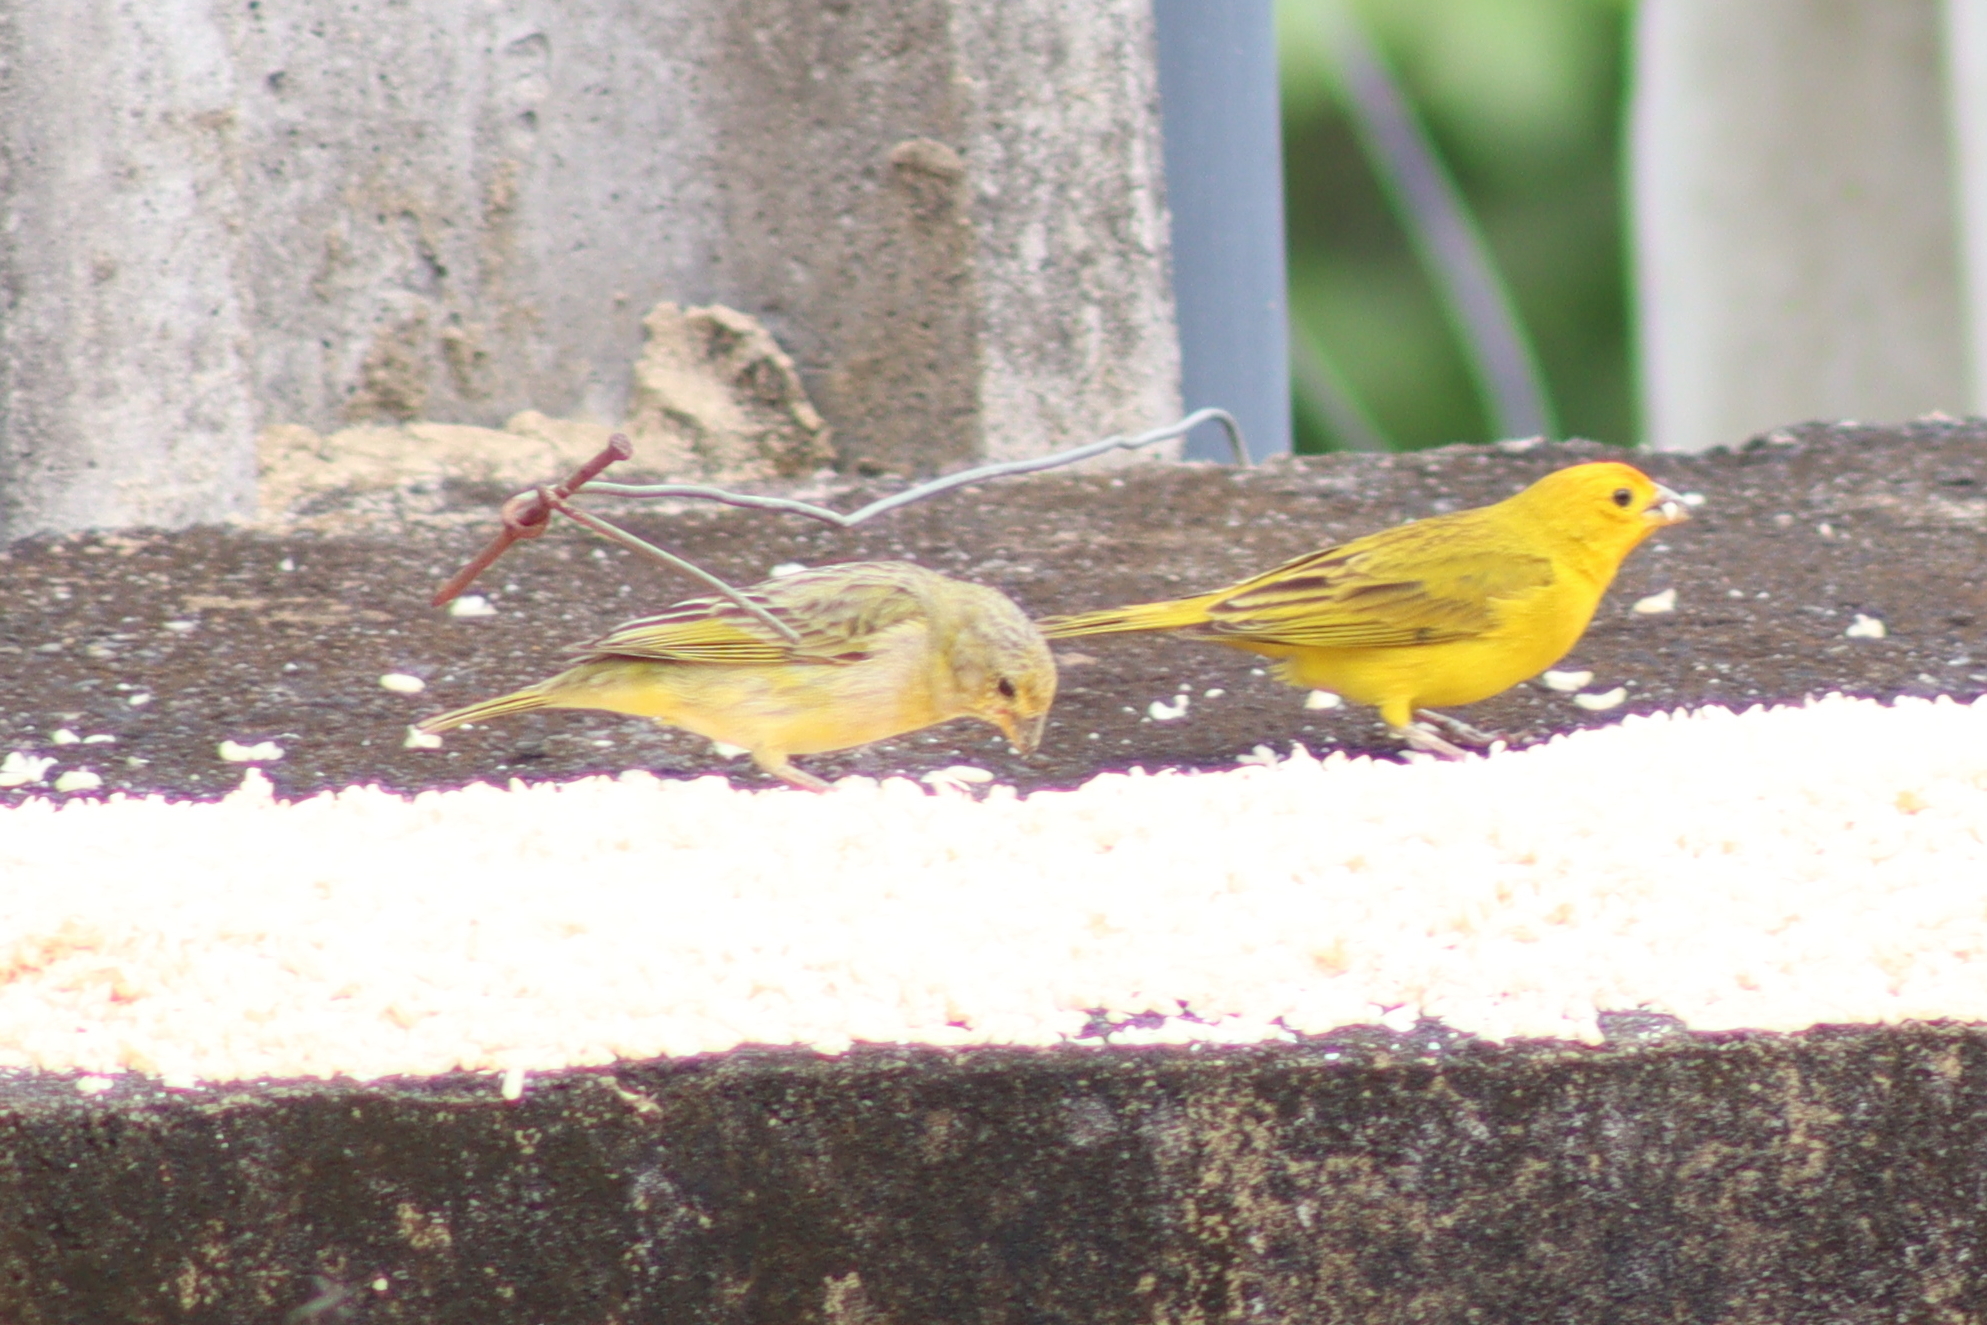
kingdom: Animalia
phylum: Chordata
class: Aves
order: Passeriformes
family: Thraupidae
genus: Sicalis
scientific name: Sicalis flaveola
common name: Saffron finch
